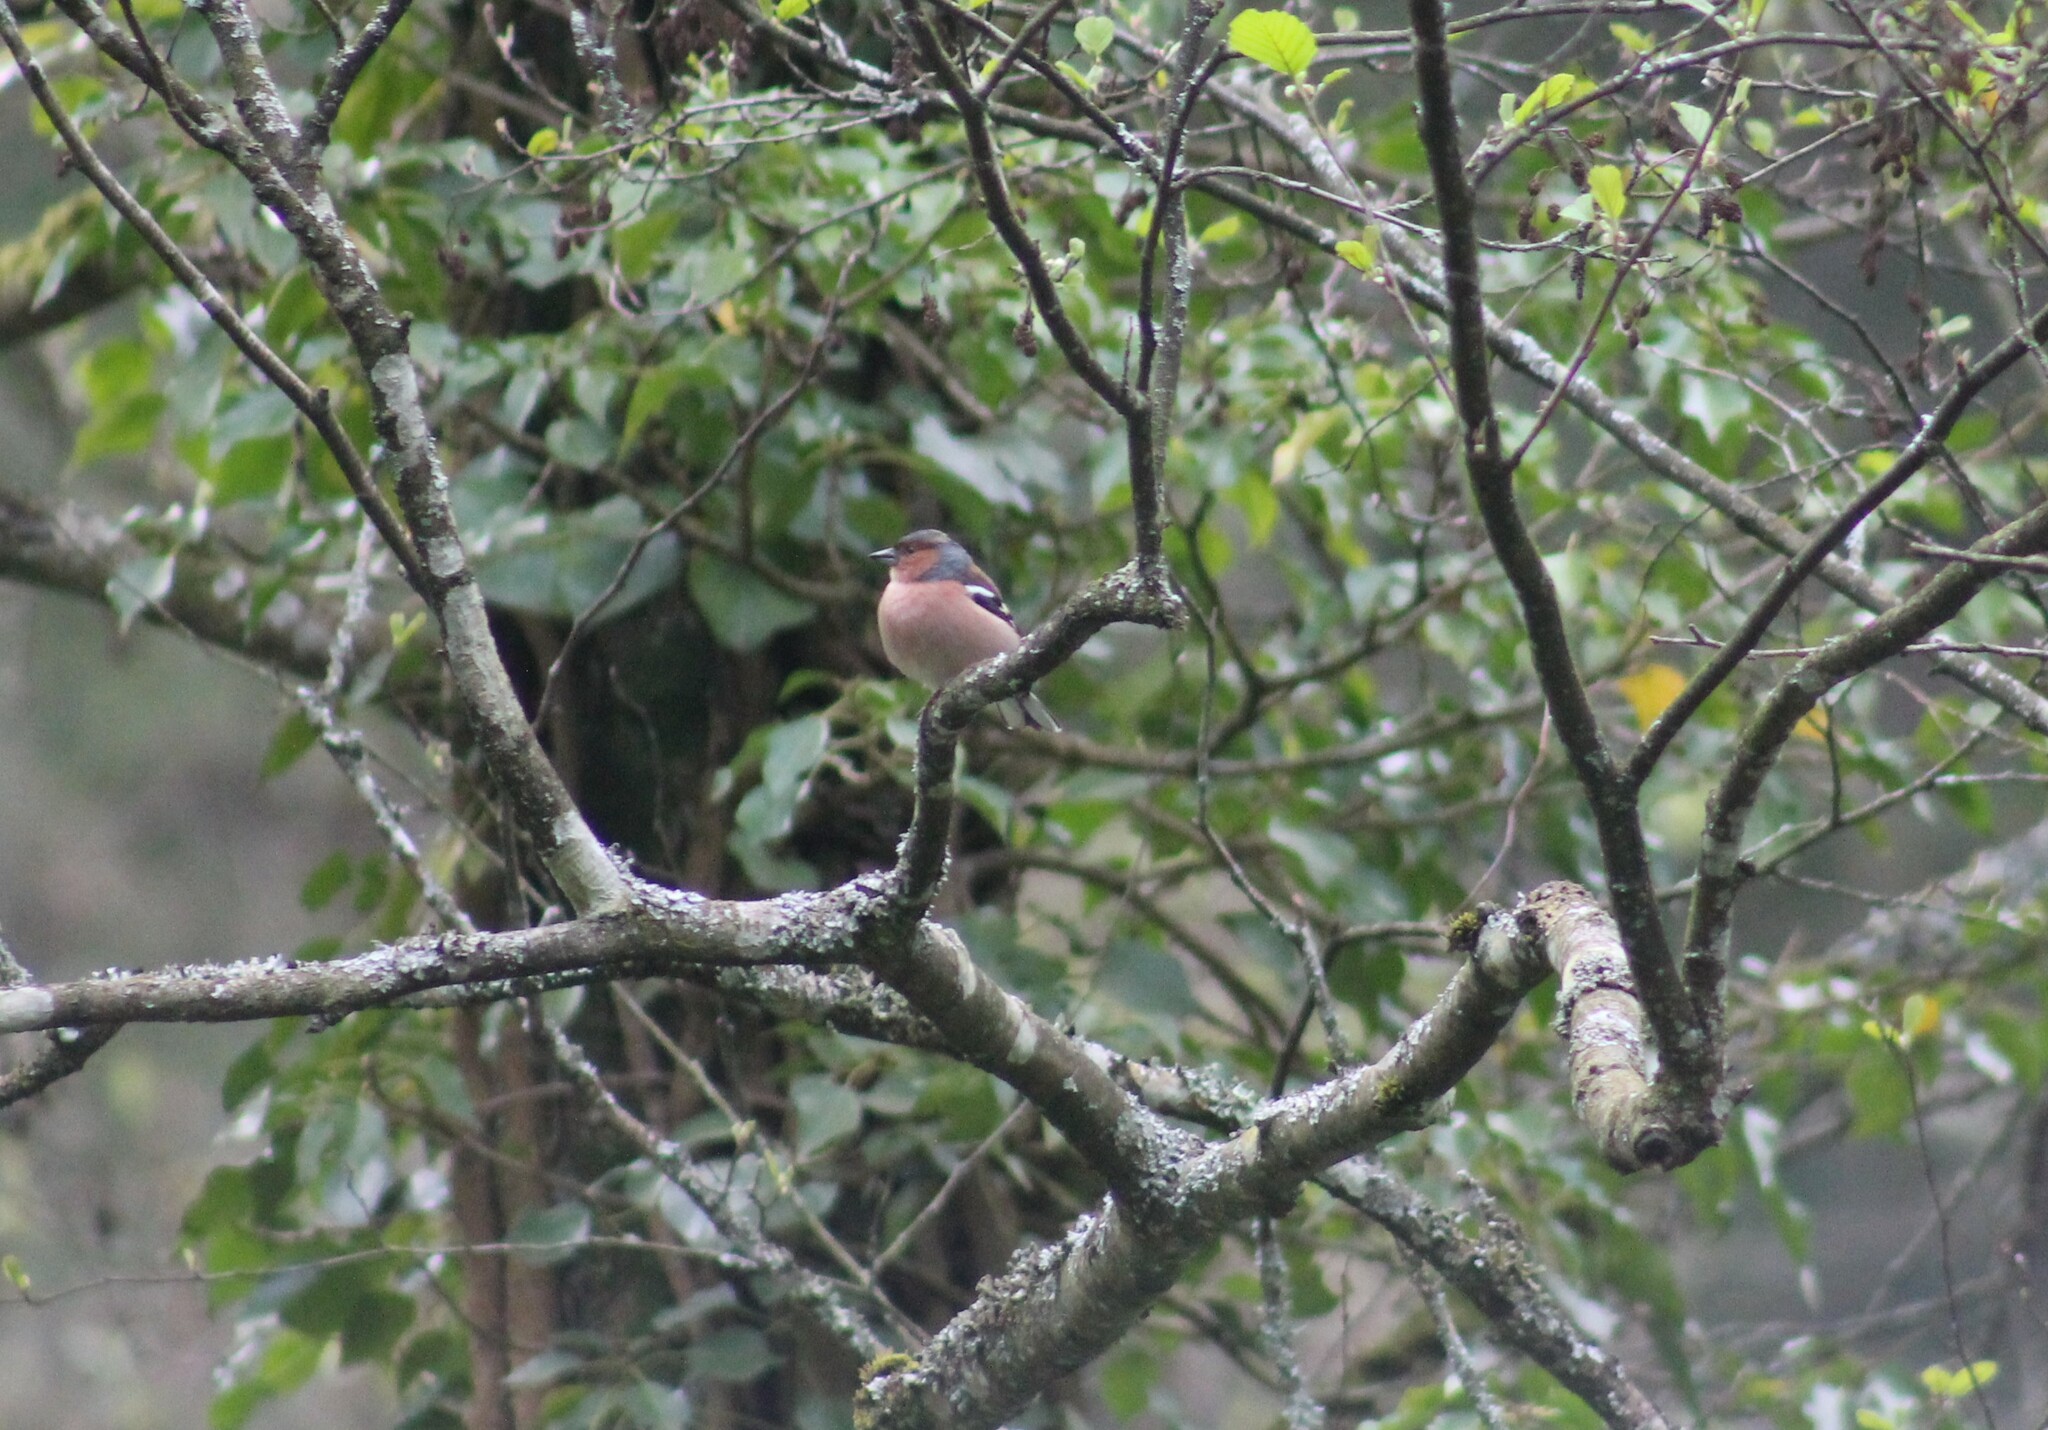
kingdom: Animalia
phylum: Chordata
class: Aves
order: Passeriformes
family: Fringillidae
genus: Fringilla
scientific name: Fringilla coelebs
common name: Common chaffinch
